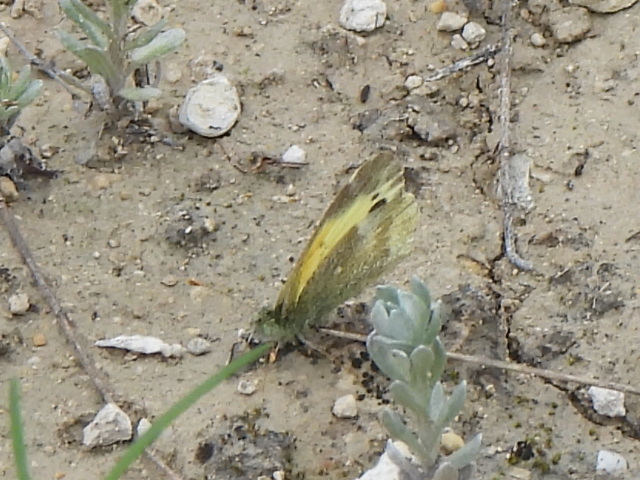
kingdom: Animalia
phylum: Arthropoda
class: Insecta
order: Lepidoptera
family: Pieridae
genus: Nathalis
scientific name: Nathalis iole
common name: Dainty sulphur
